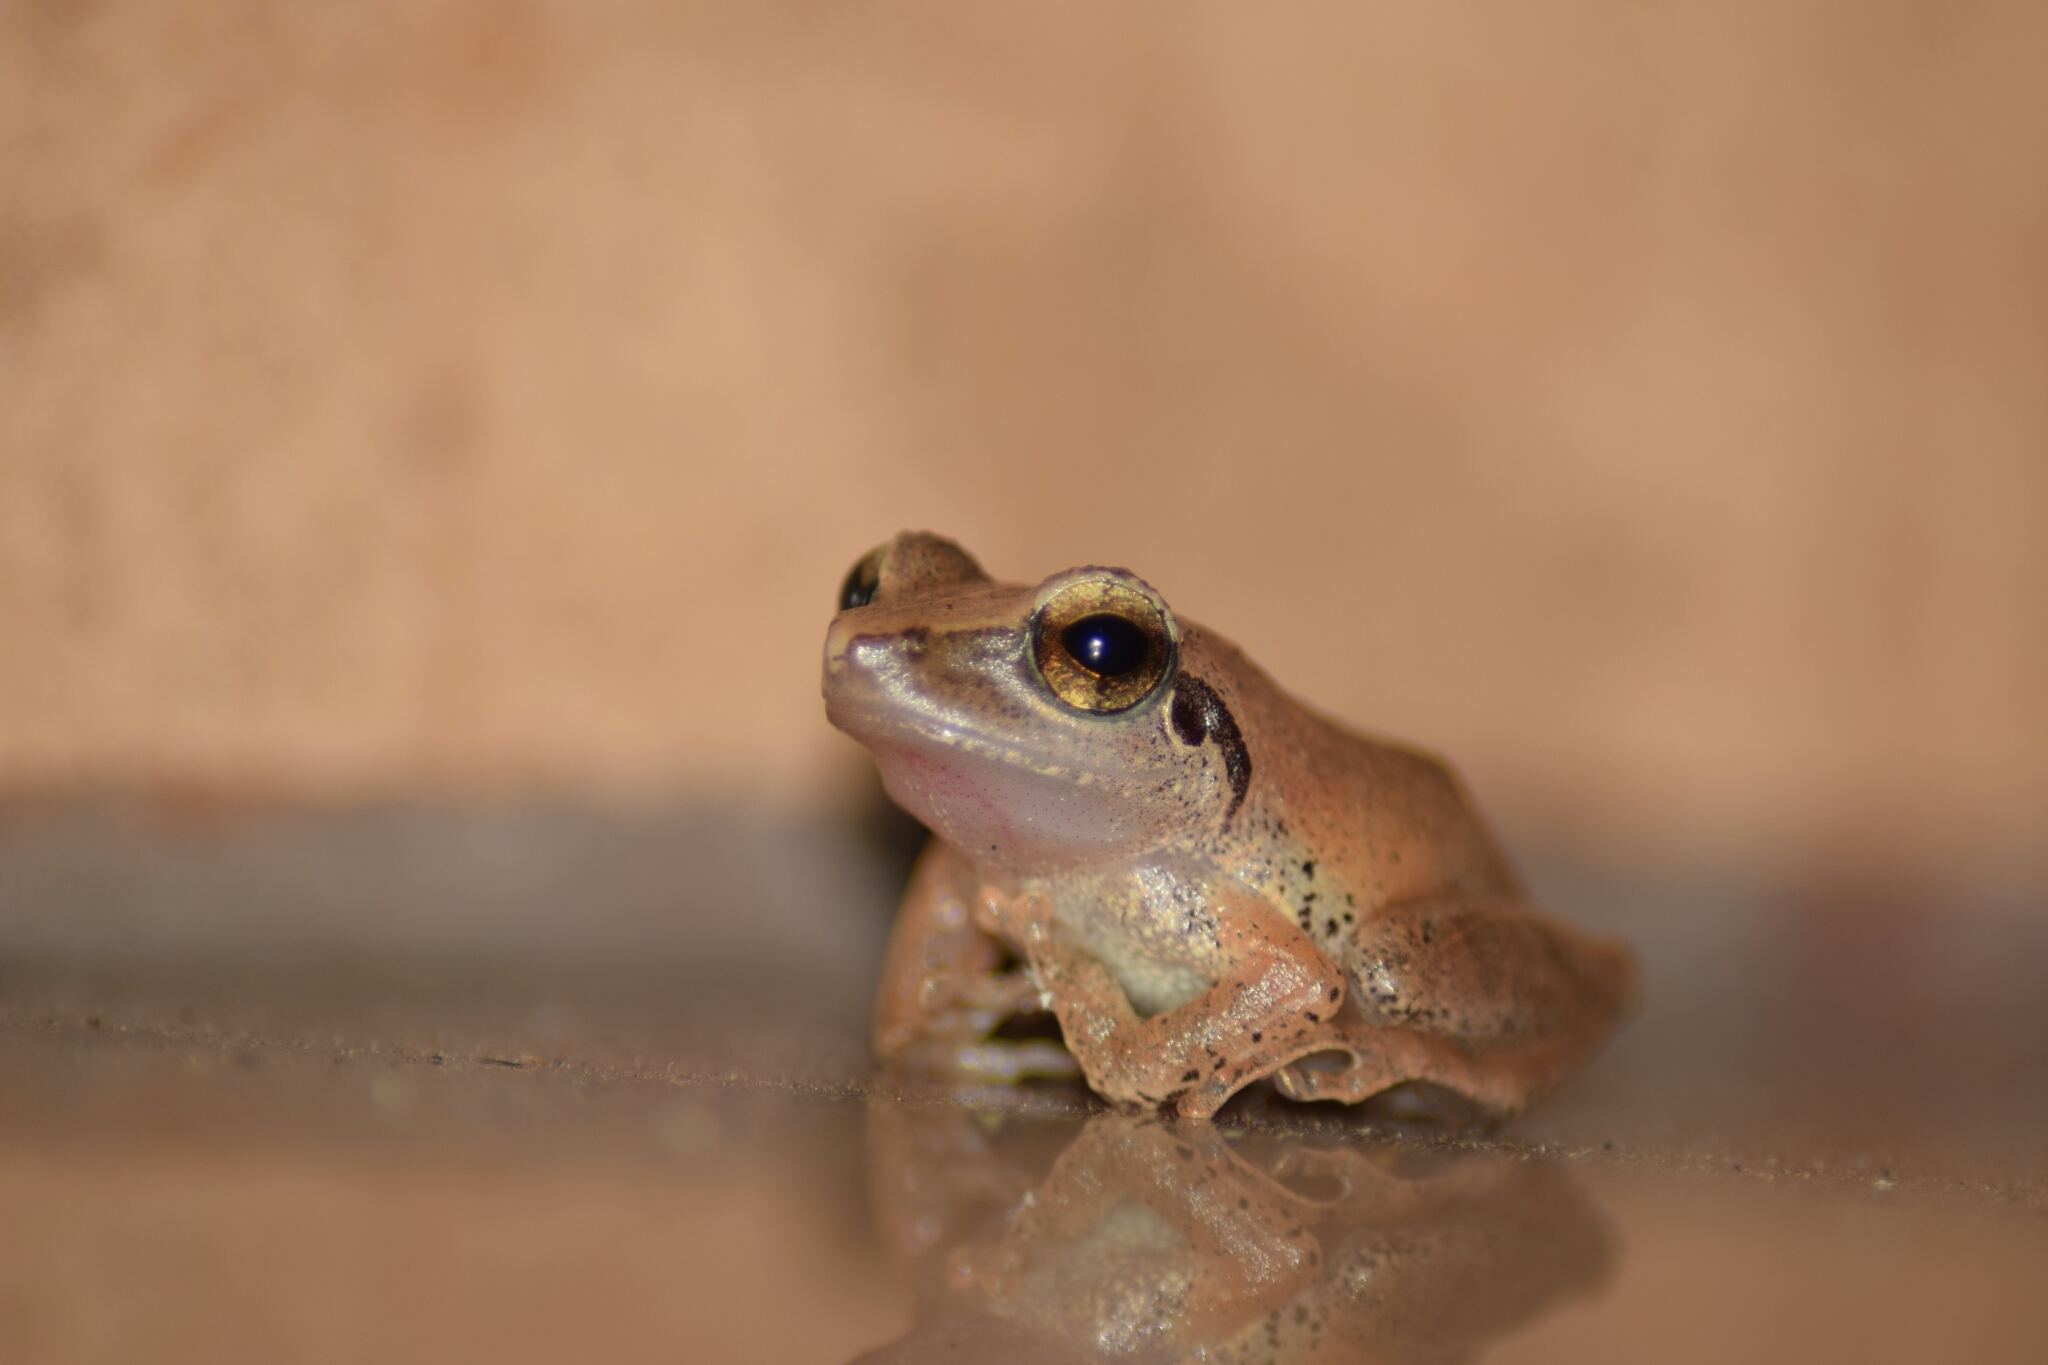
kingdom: Animalia
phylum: Chordata
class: Amphibia
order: Anura
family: Rhacophoridae
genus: Pseudophilautus
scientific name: Pseudophilautus wynaadensis
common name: Dark-eared bush frog
